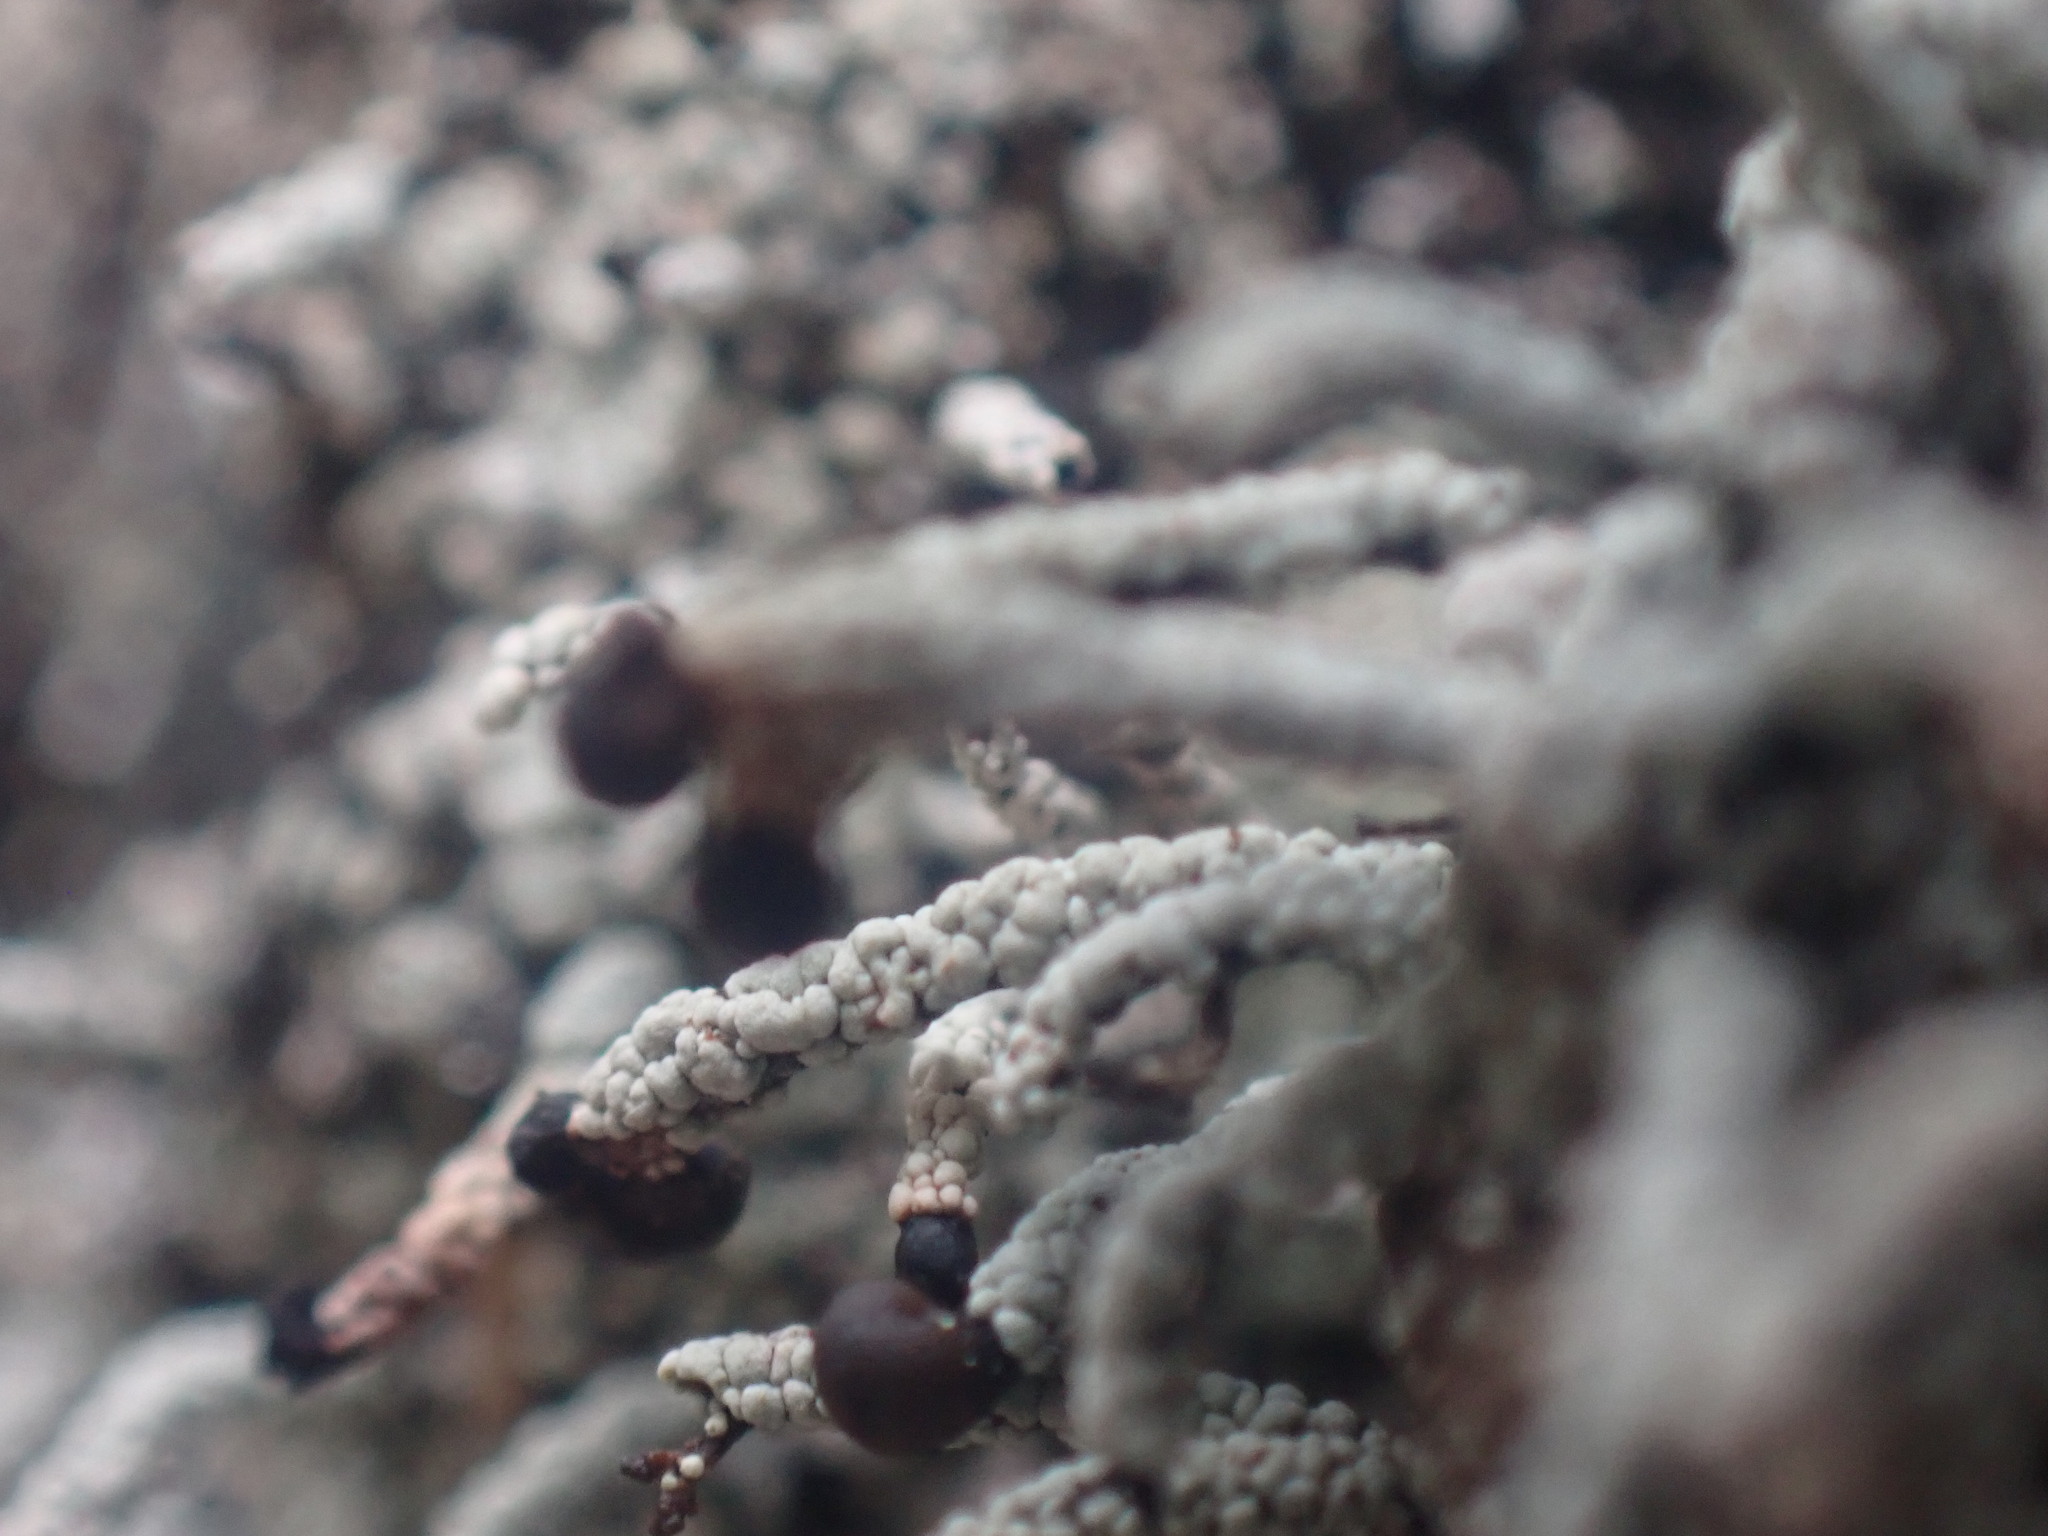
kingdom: Fungi
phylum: Ascomycota
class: Lecanoromycetes
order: Lecanorales
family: Cladoniaceae
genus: Pilophorus
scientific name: Pilophorus nigricaulis
